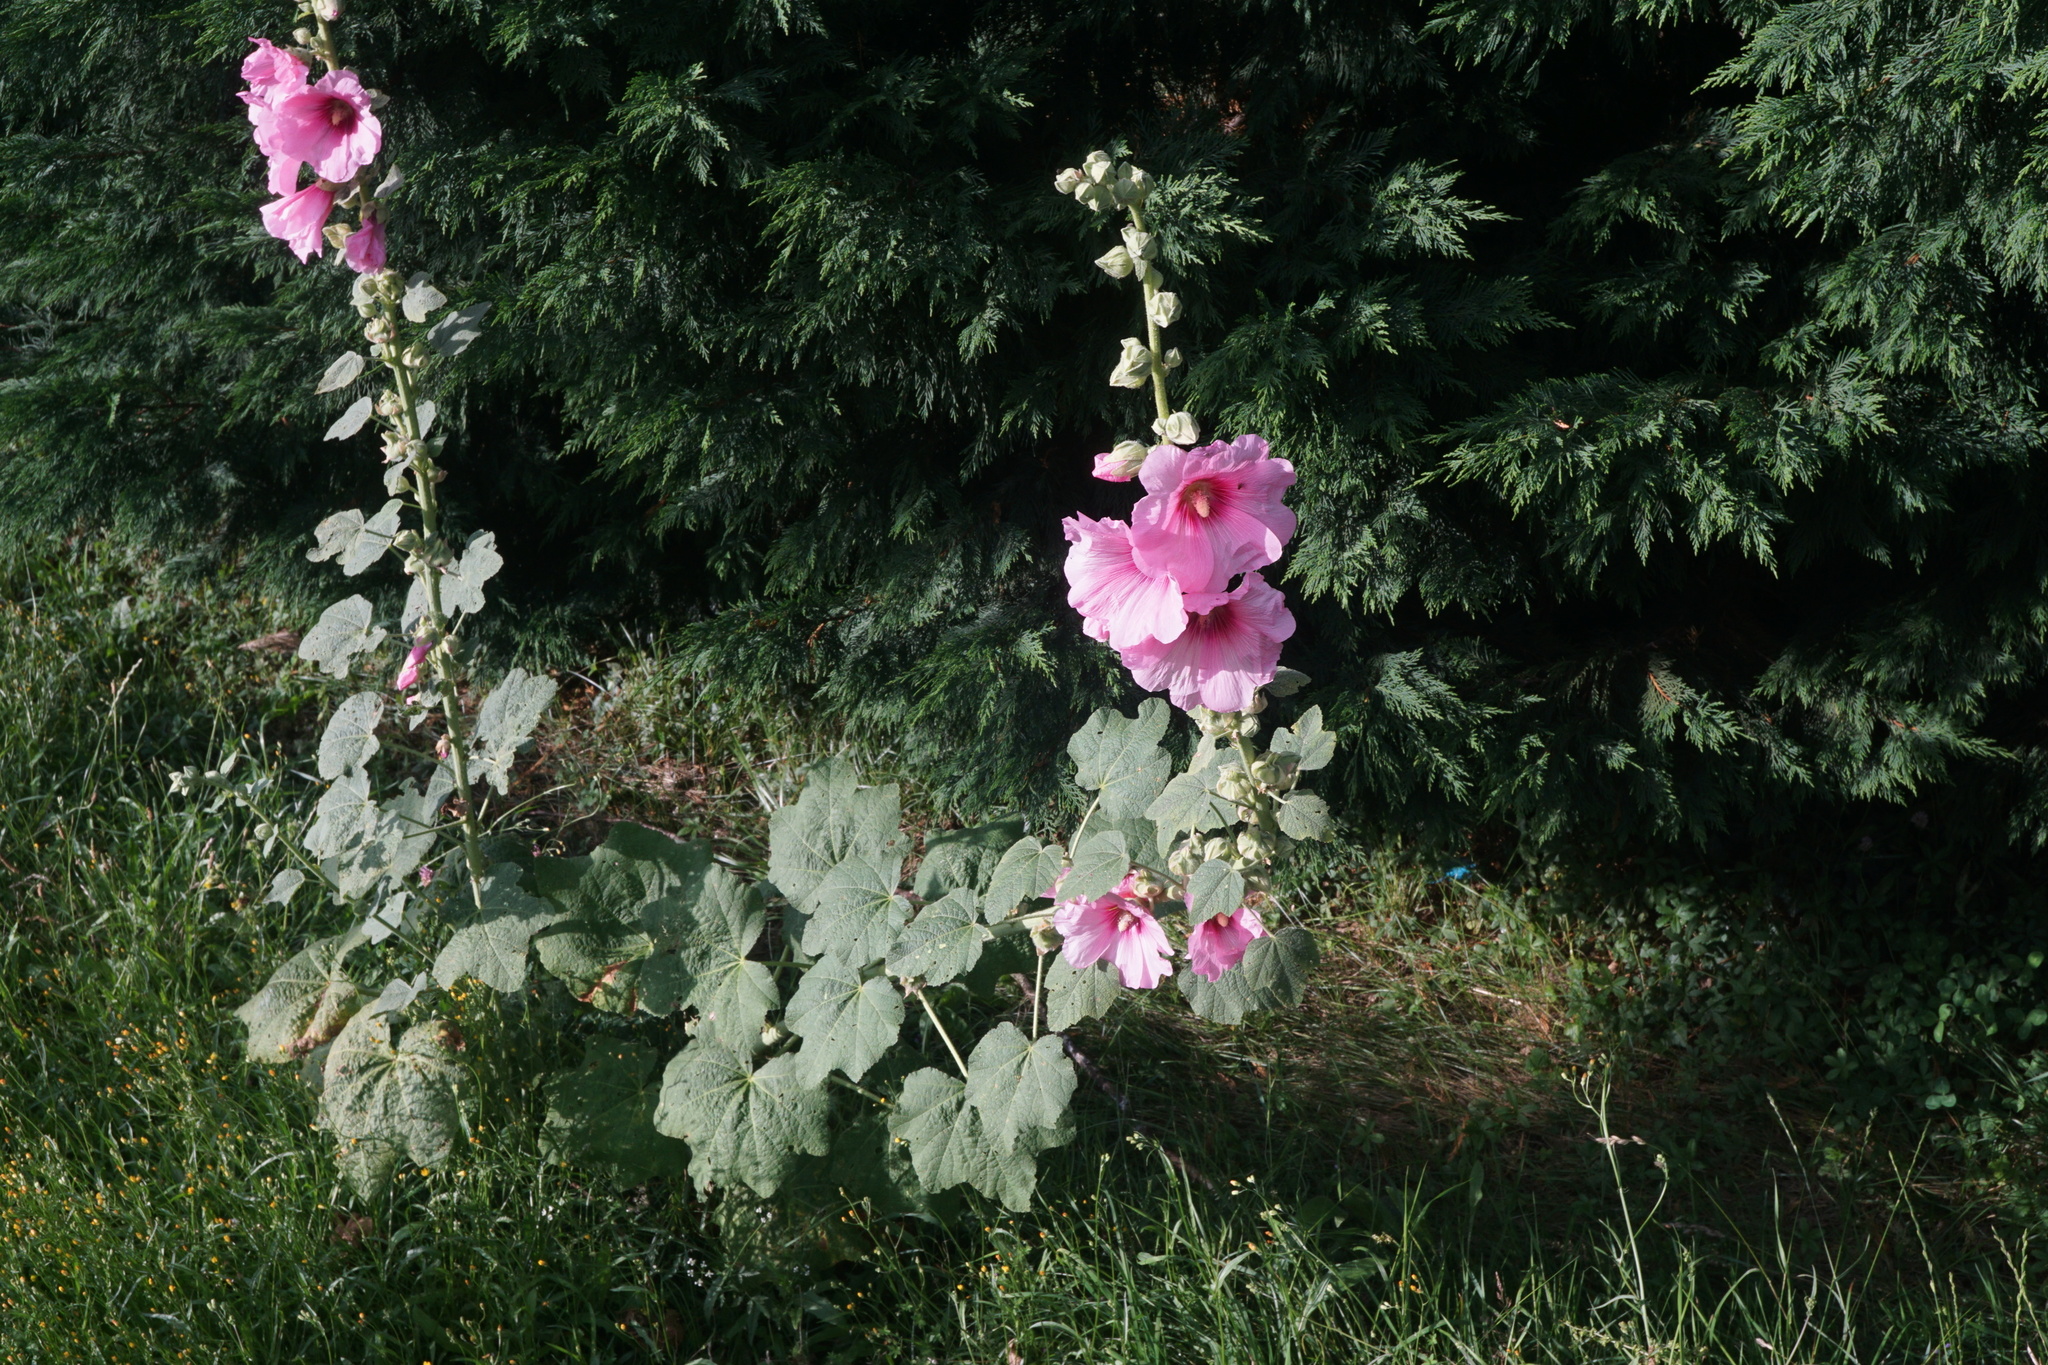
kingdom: Plantae
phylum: Tracheophyta
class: Magnoliopsida
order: Malvales
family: Malvaceae
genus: Alcea
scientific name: Alcea rosea
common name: Hollyhock
